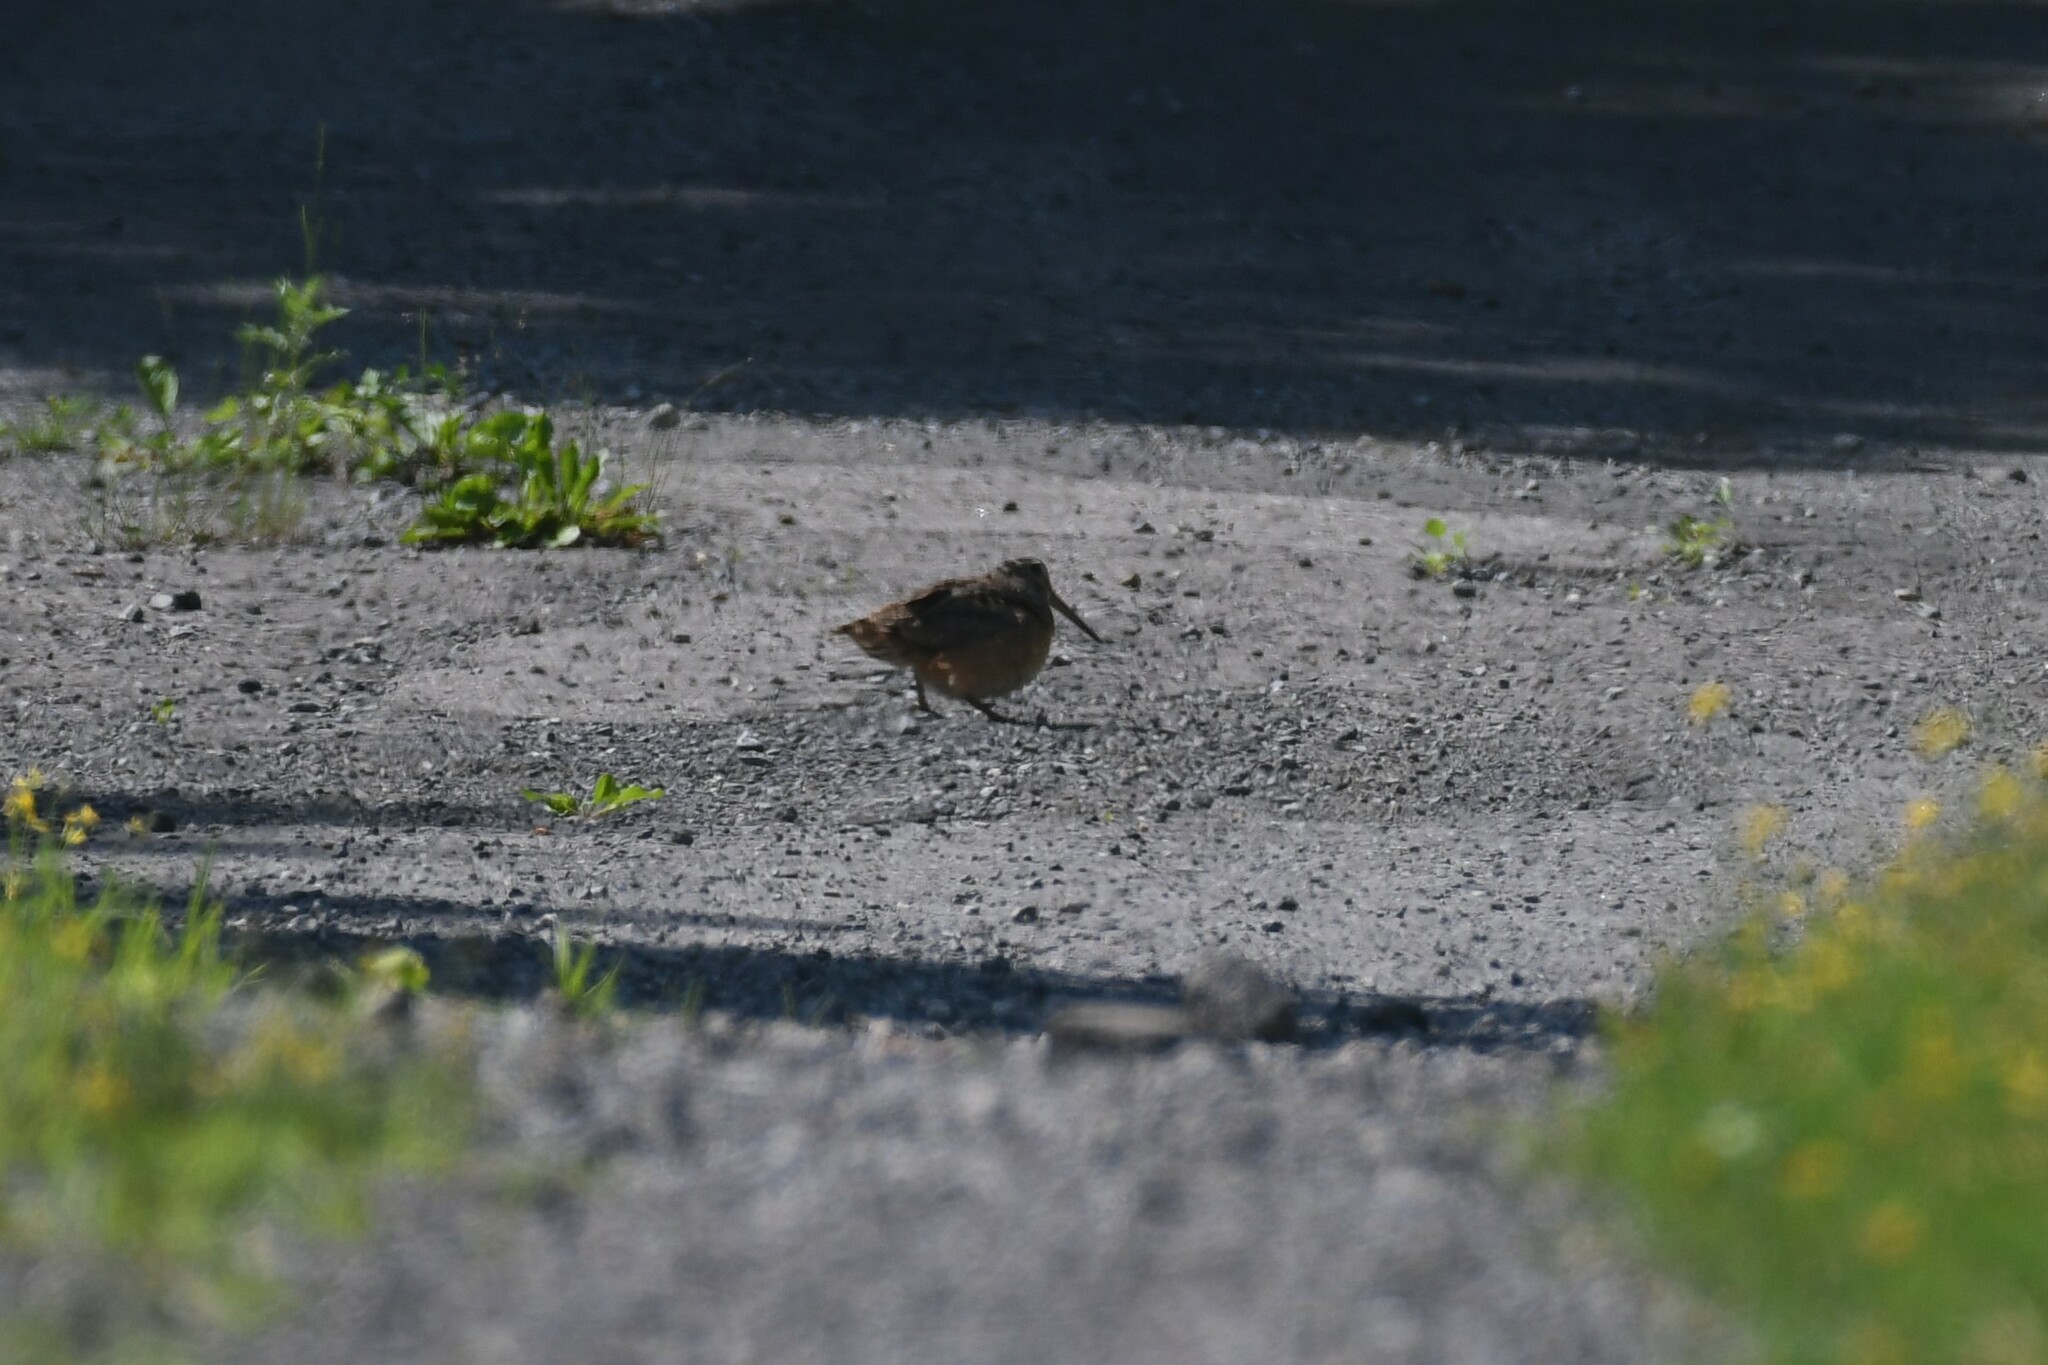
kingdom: Animalia
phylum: Chordata
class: Aves
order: Charadriiformes
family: Scolopacidae
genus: Scolopax
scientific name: Scolopax minor
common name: American woodcock
